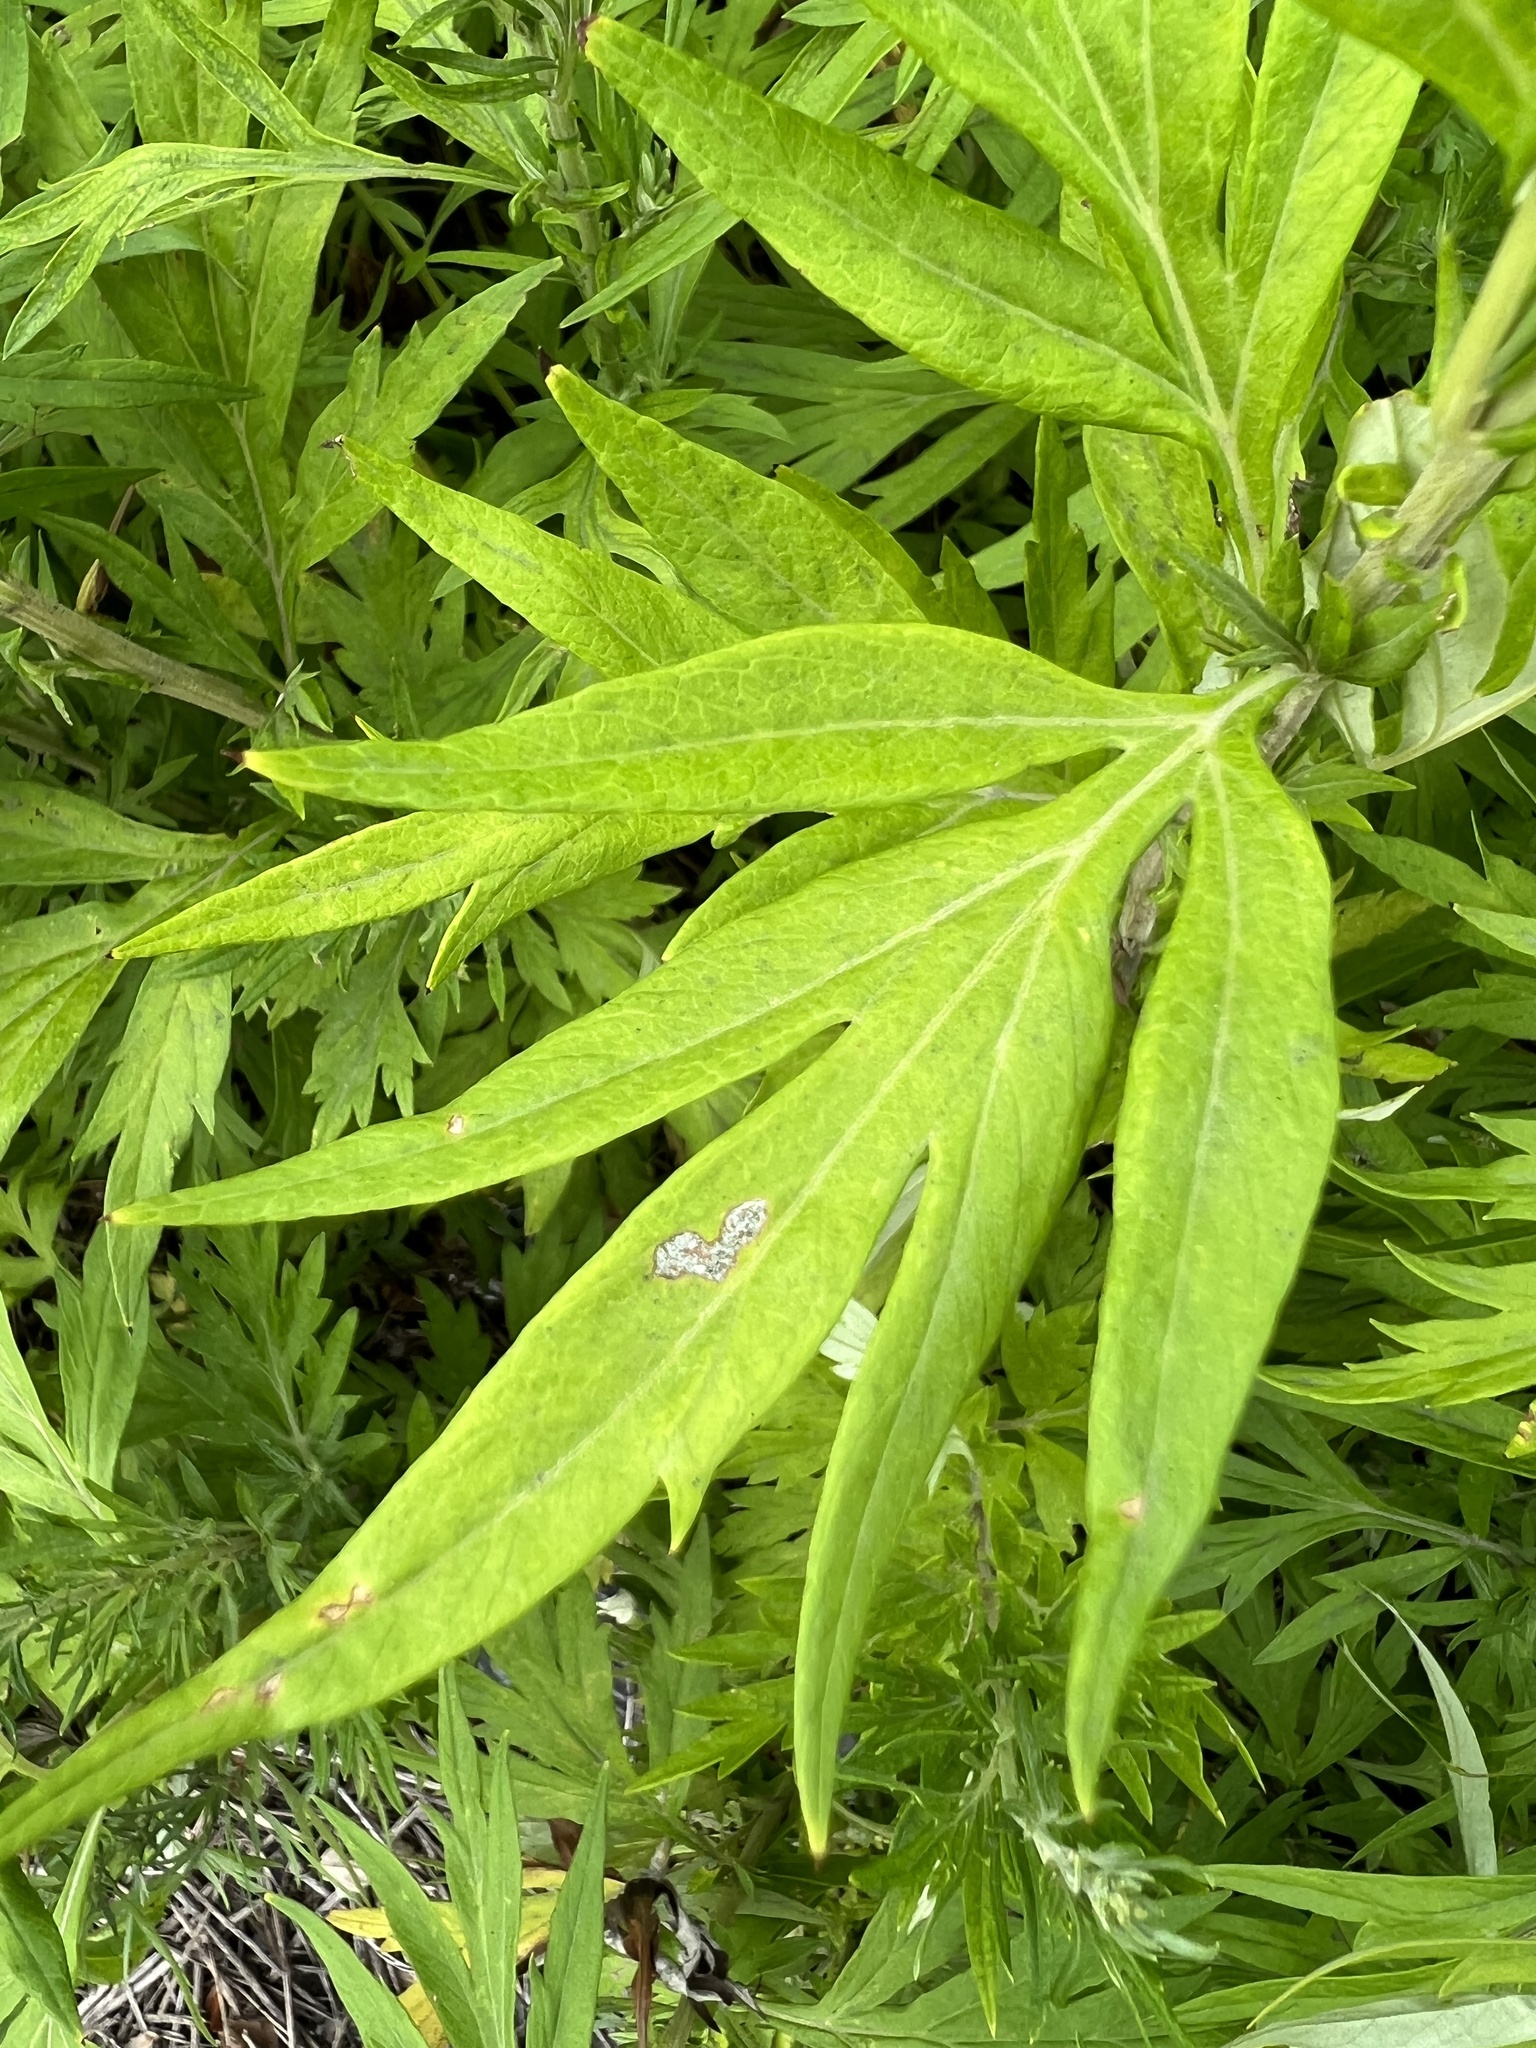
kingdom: Plantae
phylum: Tracheophyta
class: Magnoliopsida
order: Asterales
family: Asteraceae
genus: Artemisia
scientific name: Artemisia vulgaris
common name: Mugwort
